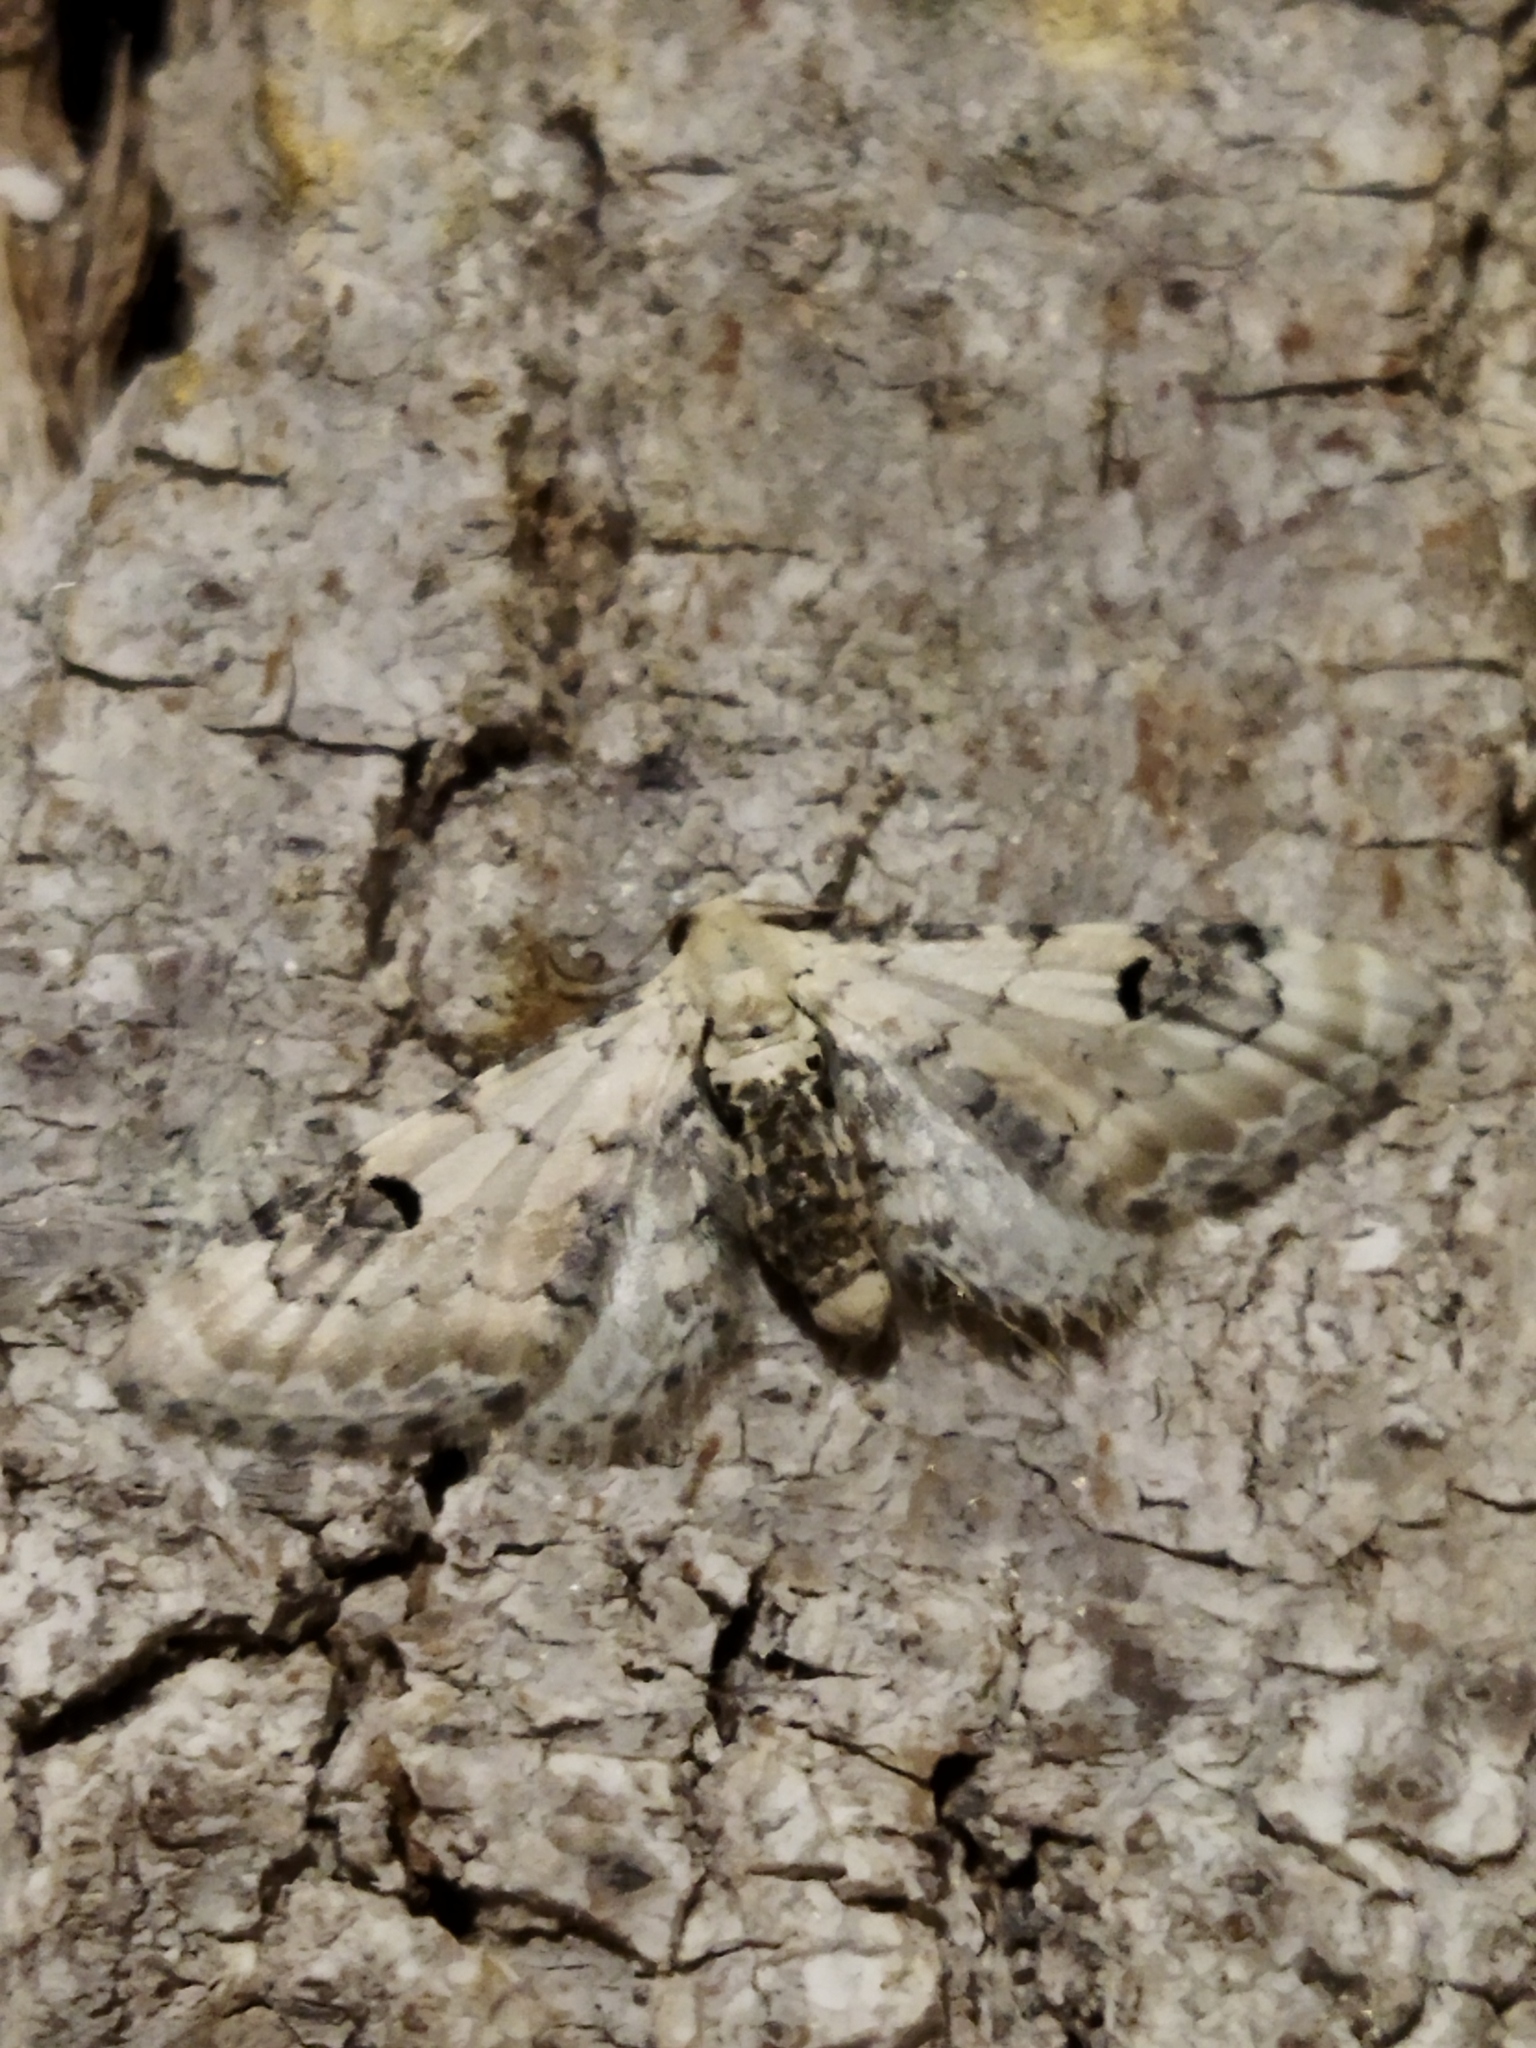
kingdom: Animalia
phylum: Arthropoda
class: Insecta
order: Lepidoptera
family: Geometridae
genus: Eupithecia
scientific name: Eupithecia centaureata
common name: Lime-speck pug
